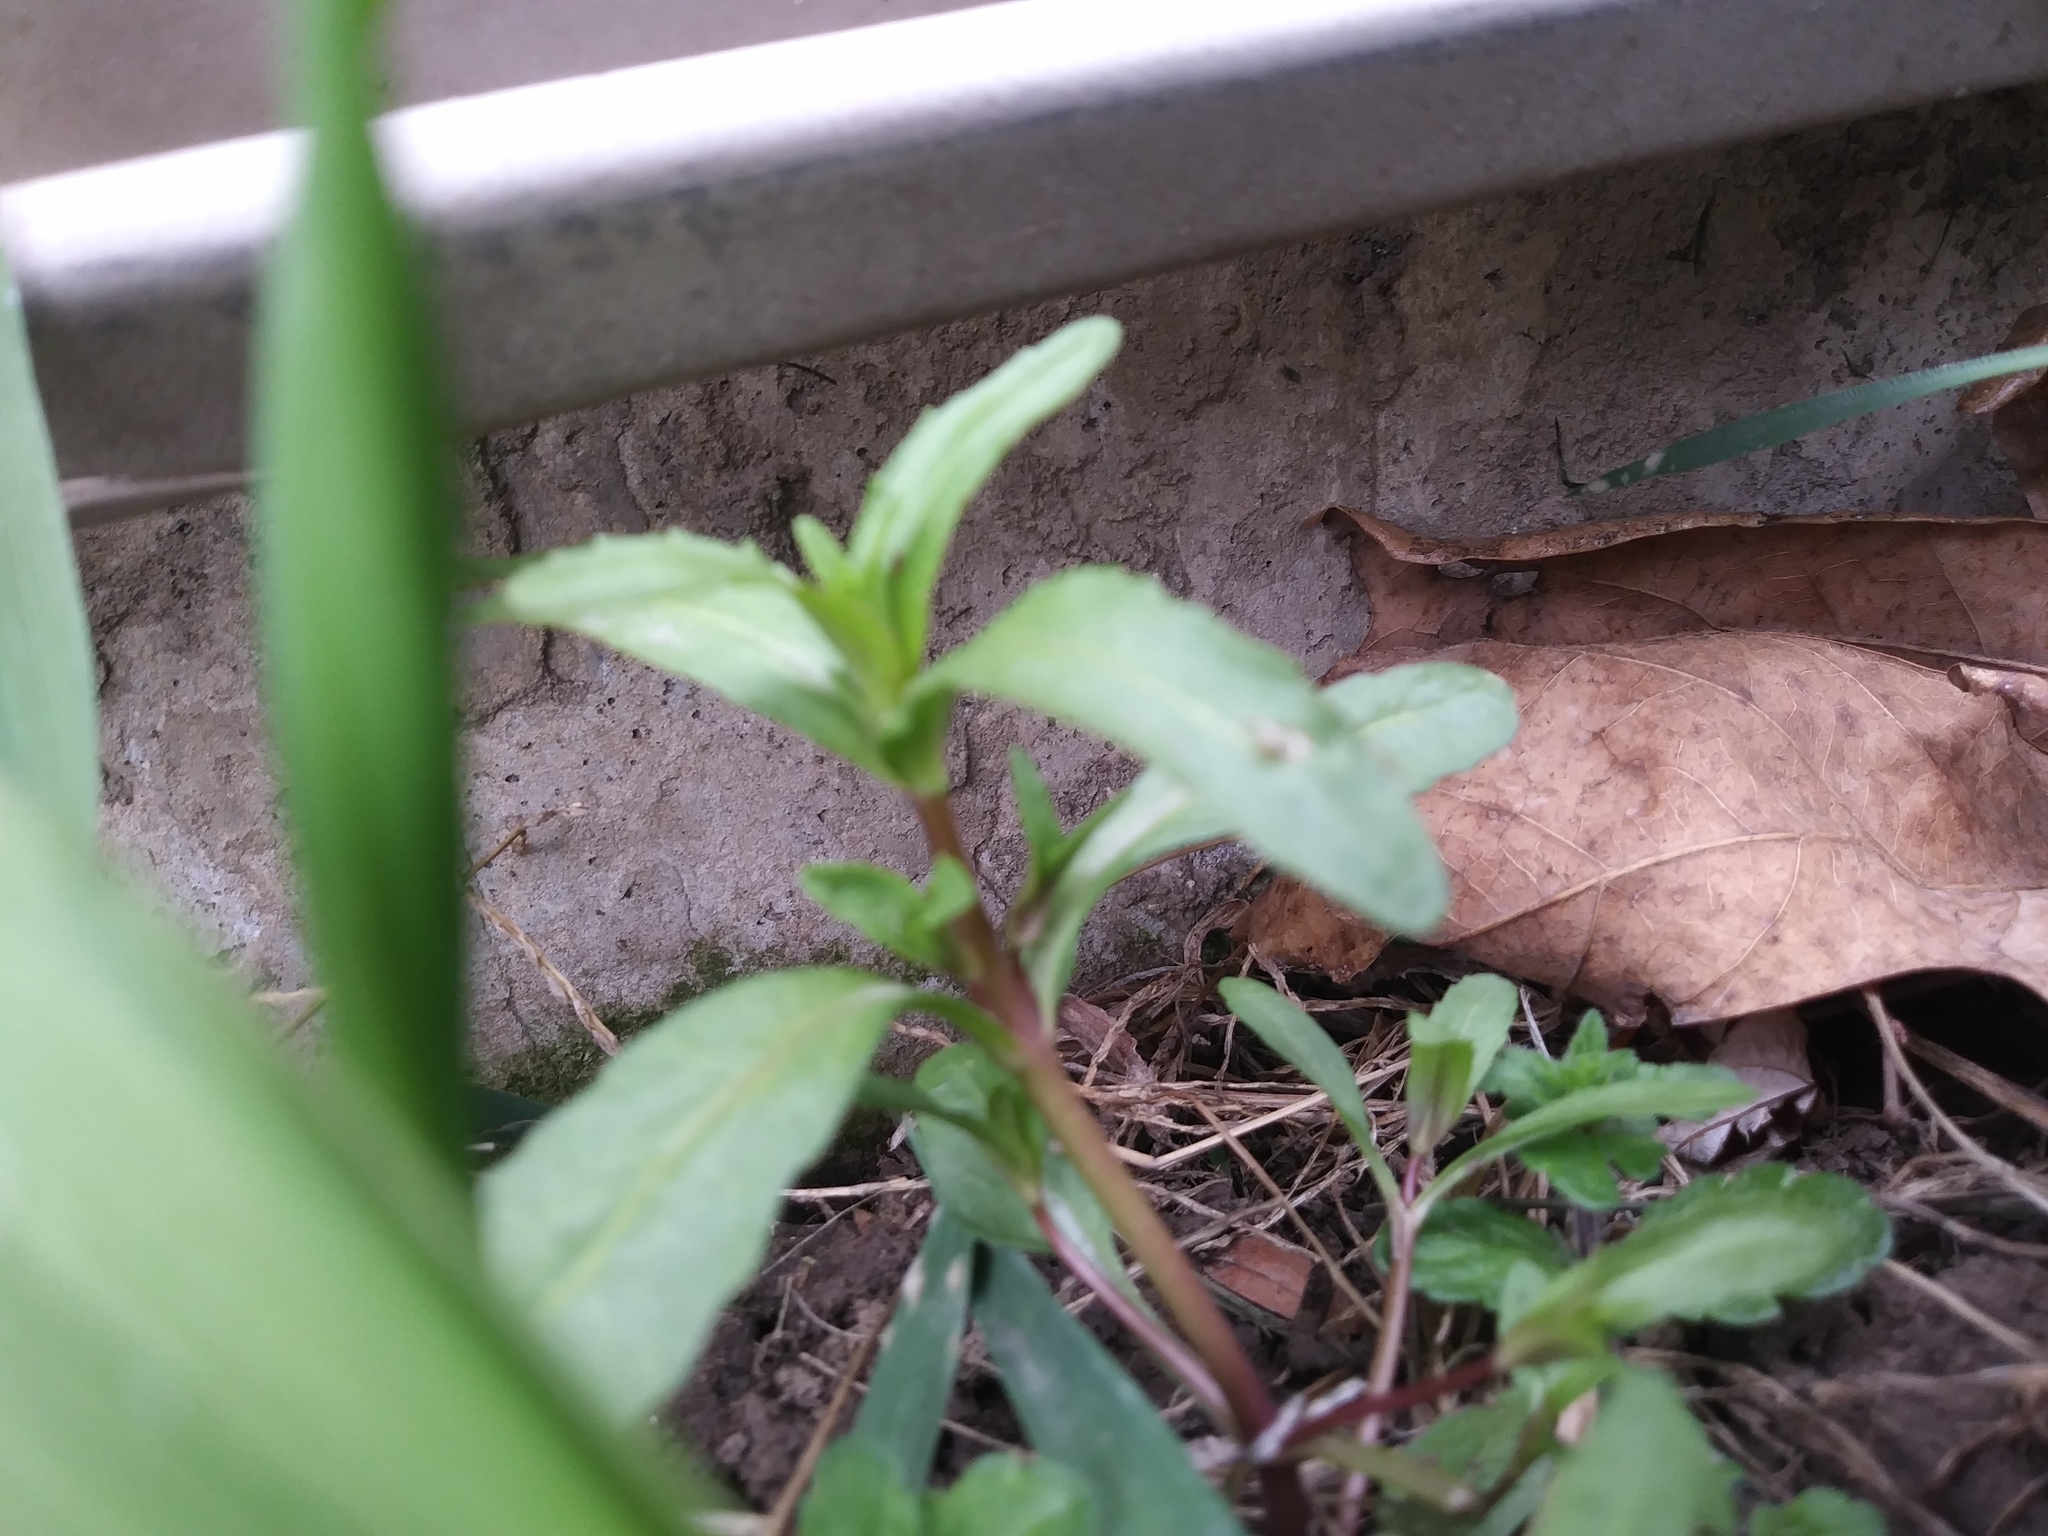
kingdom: Plantae
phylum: Tracheophyta
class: Magnoliopsida
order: Lamiales
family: Plantaginaceae
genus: Veronica
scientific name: Veronica peregrina
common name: Neckweed
